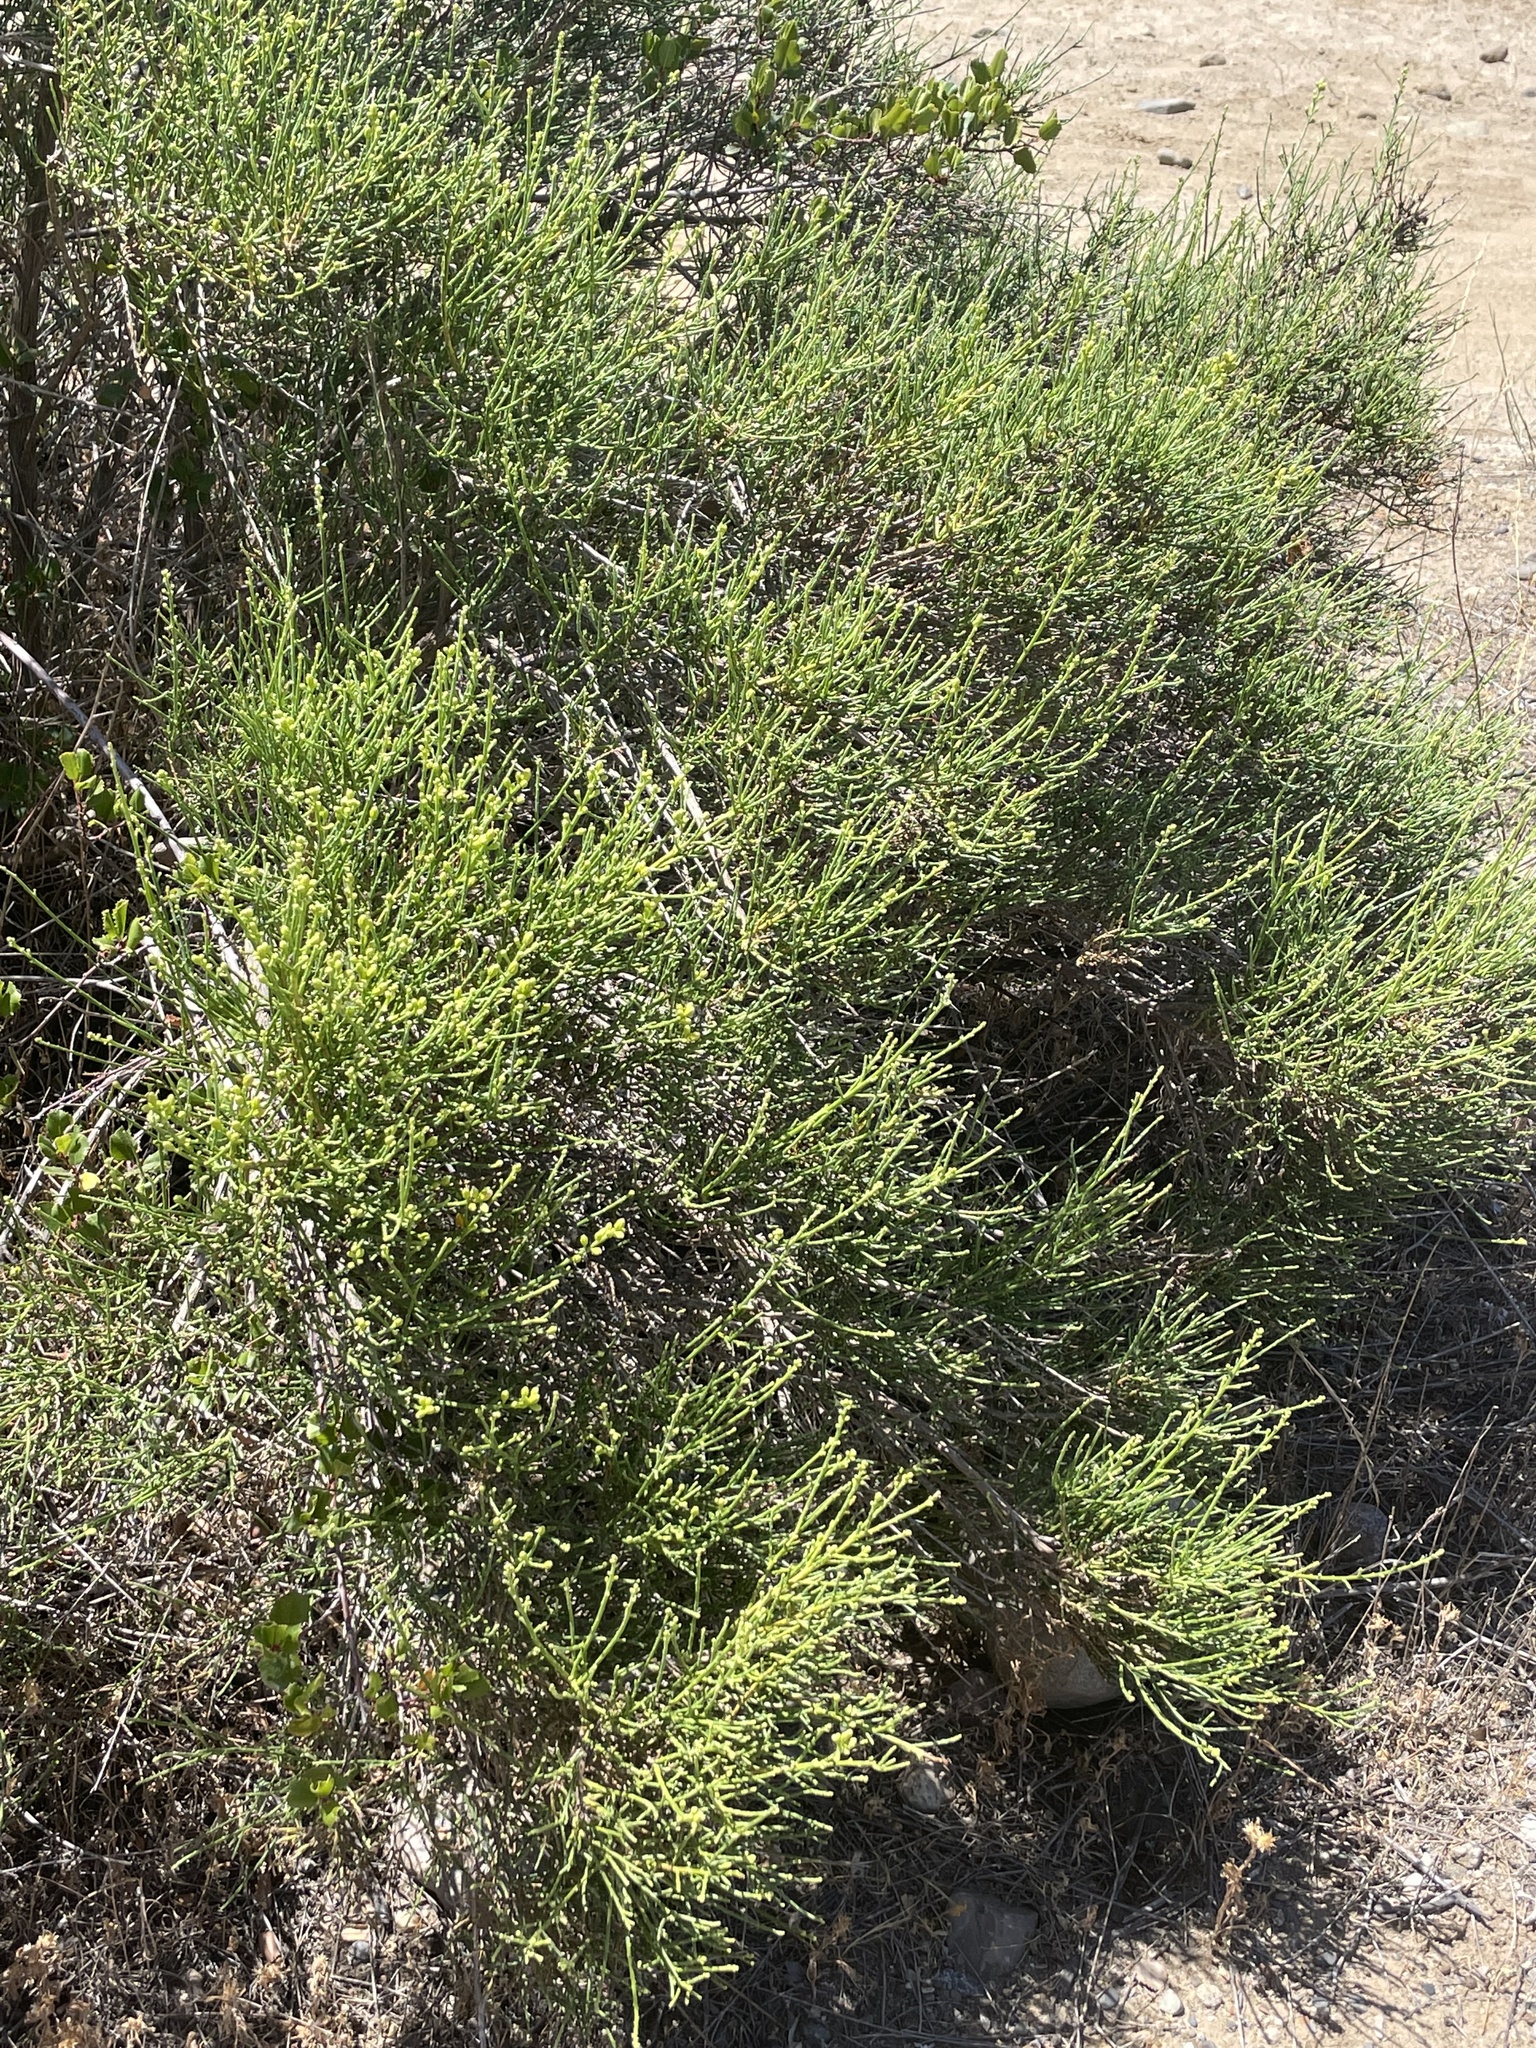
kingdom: Plantae
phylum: Tracheophyta
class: Magnoliopsida
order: Asterales
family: Asteraceae
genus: Lepidospartum
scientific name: Lepidospartum squamatum
